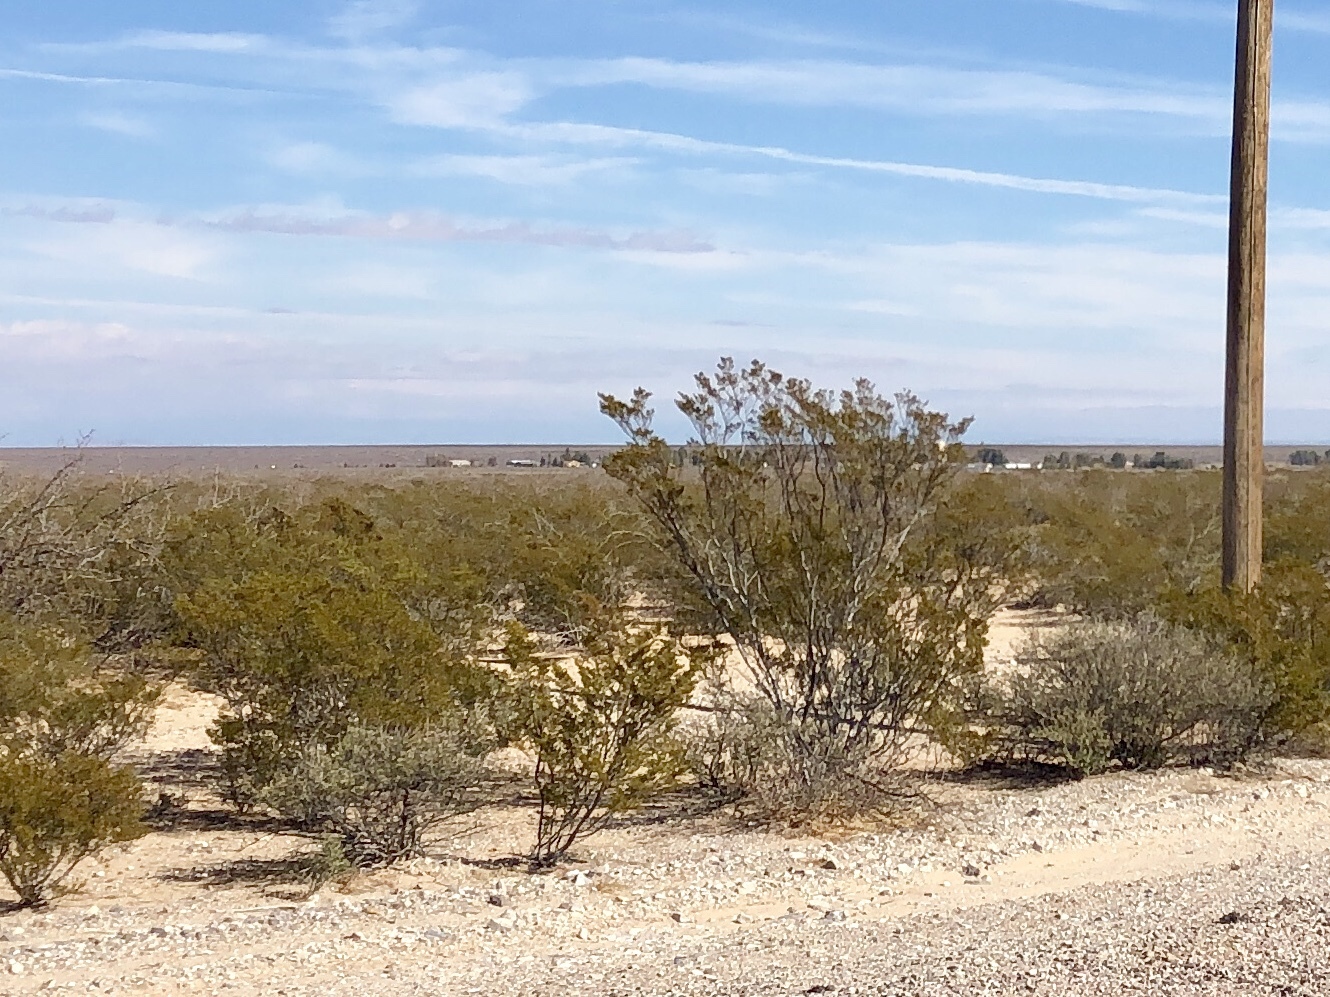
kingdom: Plantae
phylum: Tracheophyta
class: Magnoliopsida
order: Zygophyllales
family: Zygophyllaceae
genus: Larrea
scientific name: Larrea tridentata
